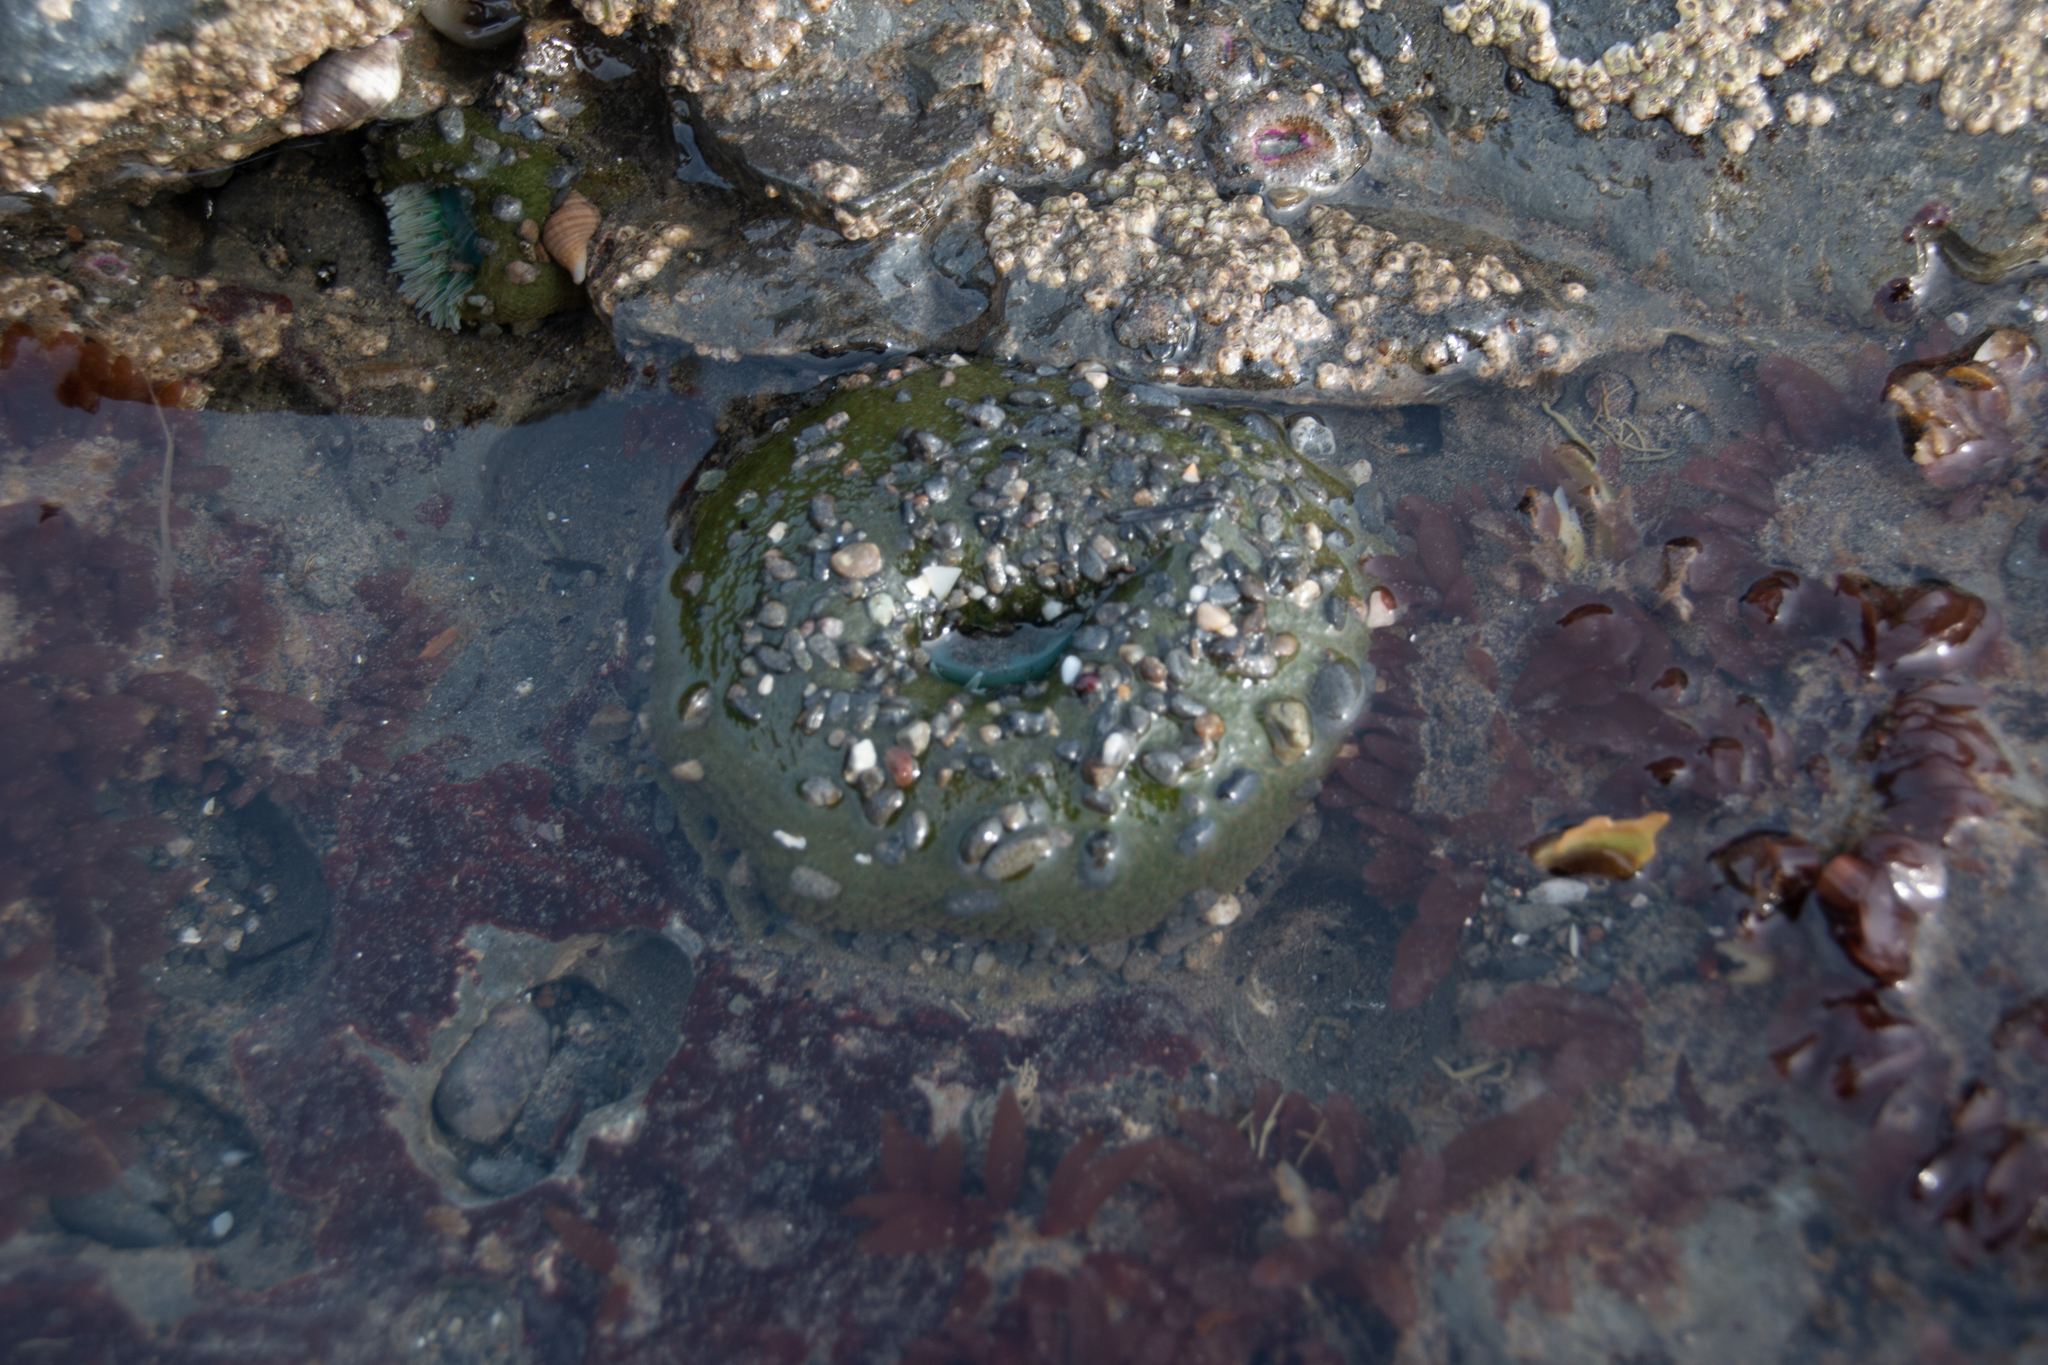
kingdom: Animalia
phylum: Cnidaria
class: Anthozoa
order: Actiniaria
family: Actiniidae
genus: Anthopleura
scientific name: Anthopleura xanthogrammica
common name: Giant green anemone
